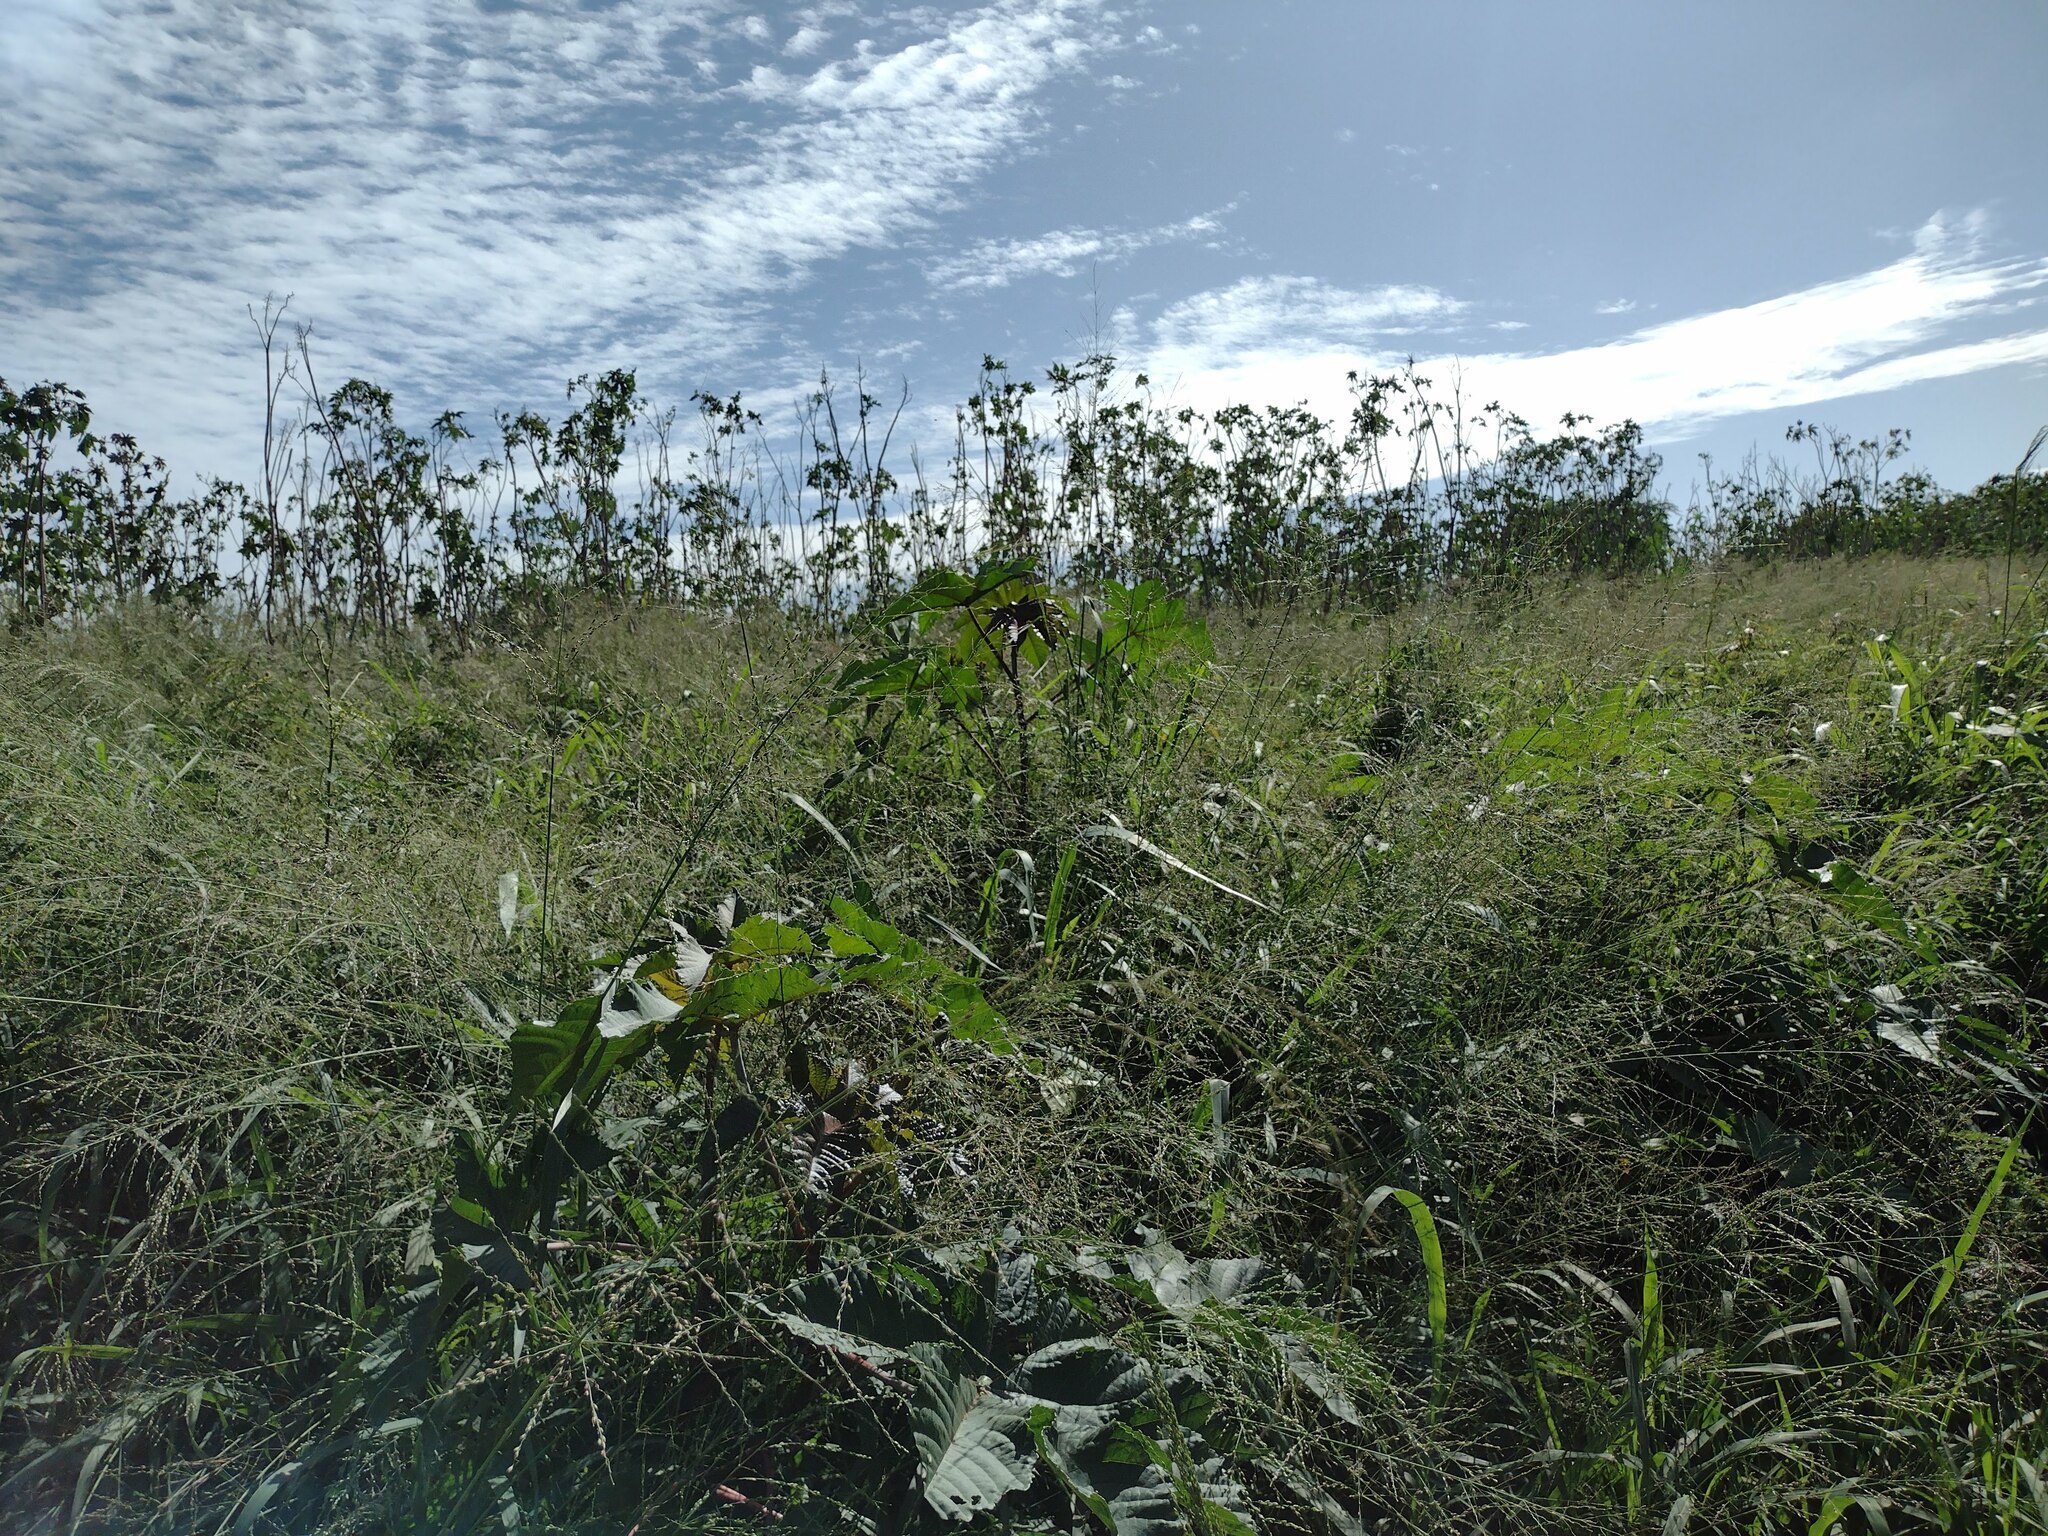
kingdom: Plantae
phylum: Tracheophyta
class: Liliopsida
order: Poales
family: Poaceae
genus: Megathyrsus
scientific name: Megathyrsus maximus
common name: Guineagrass
